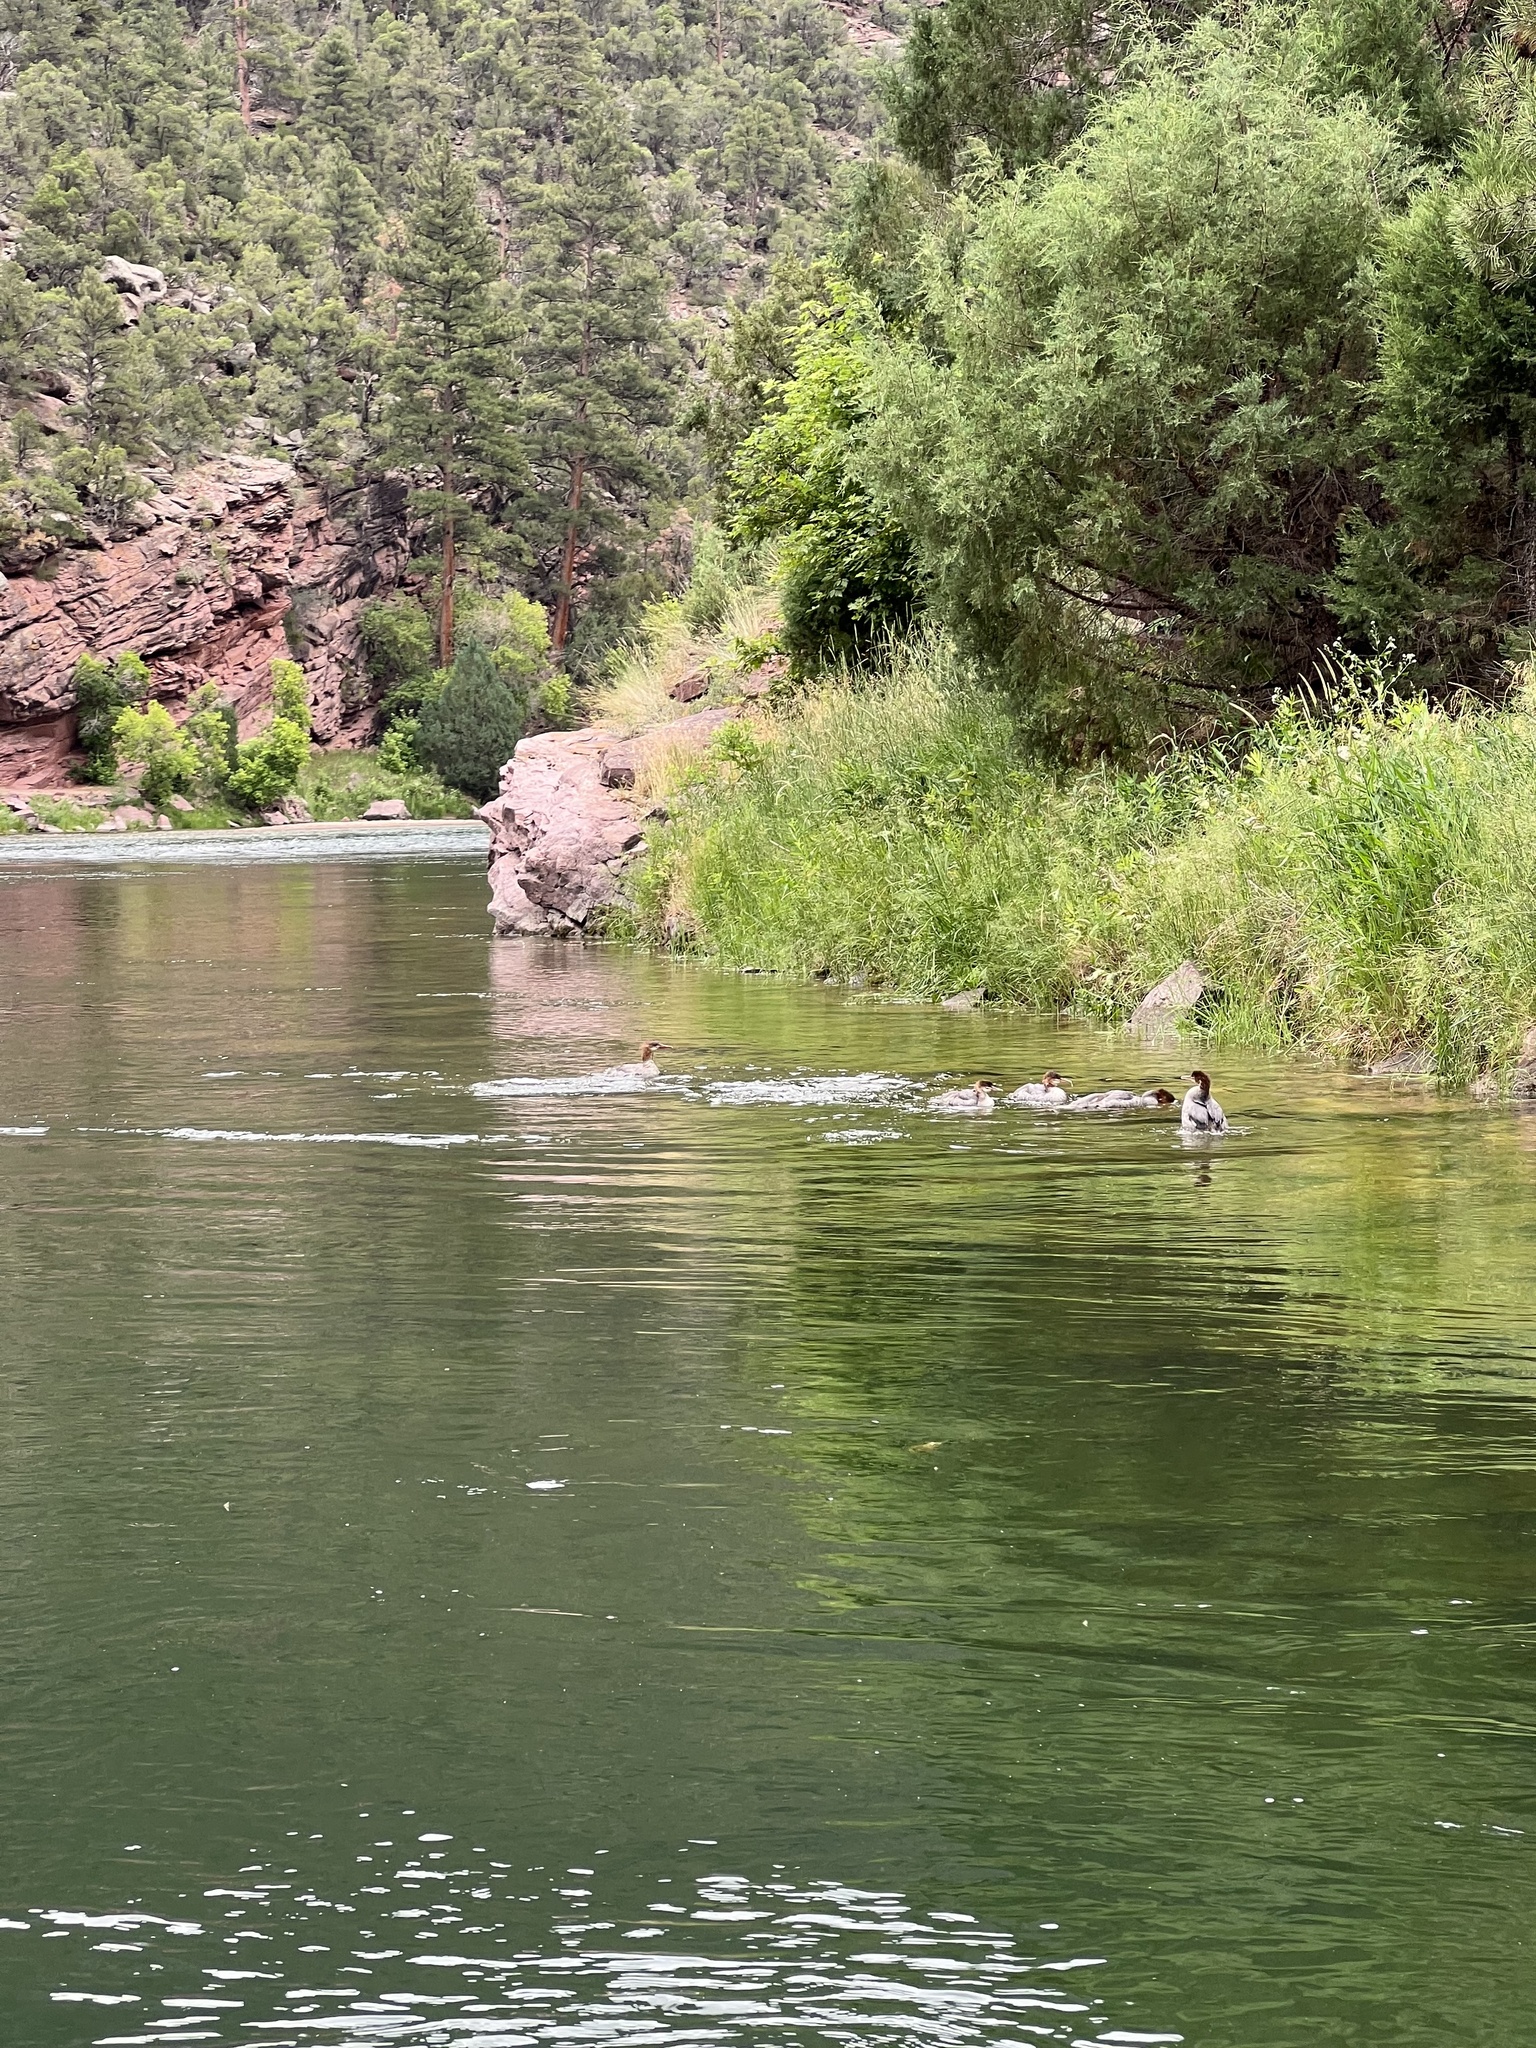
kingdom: Animalia
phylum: Chordata
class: Aves
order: Anseriformes
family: Anatidae
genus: Mergus
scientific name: Mergus merganser
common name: Common merganser
